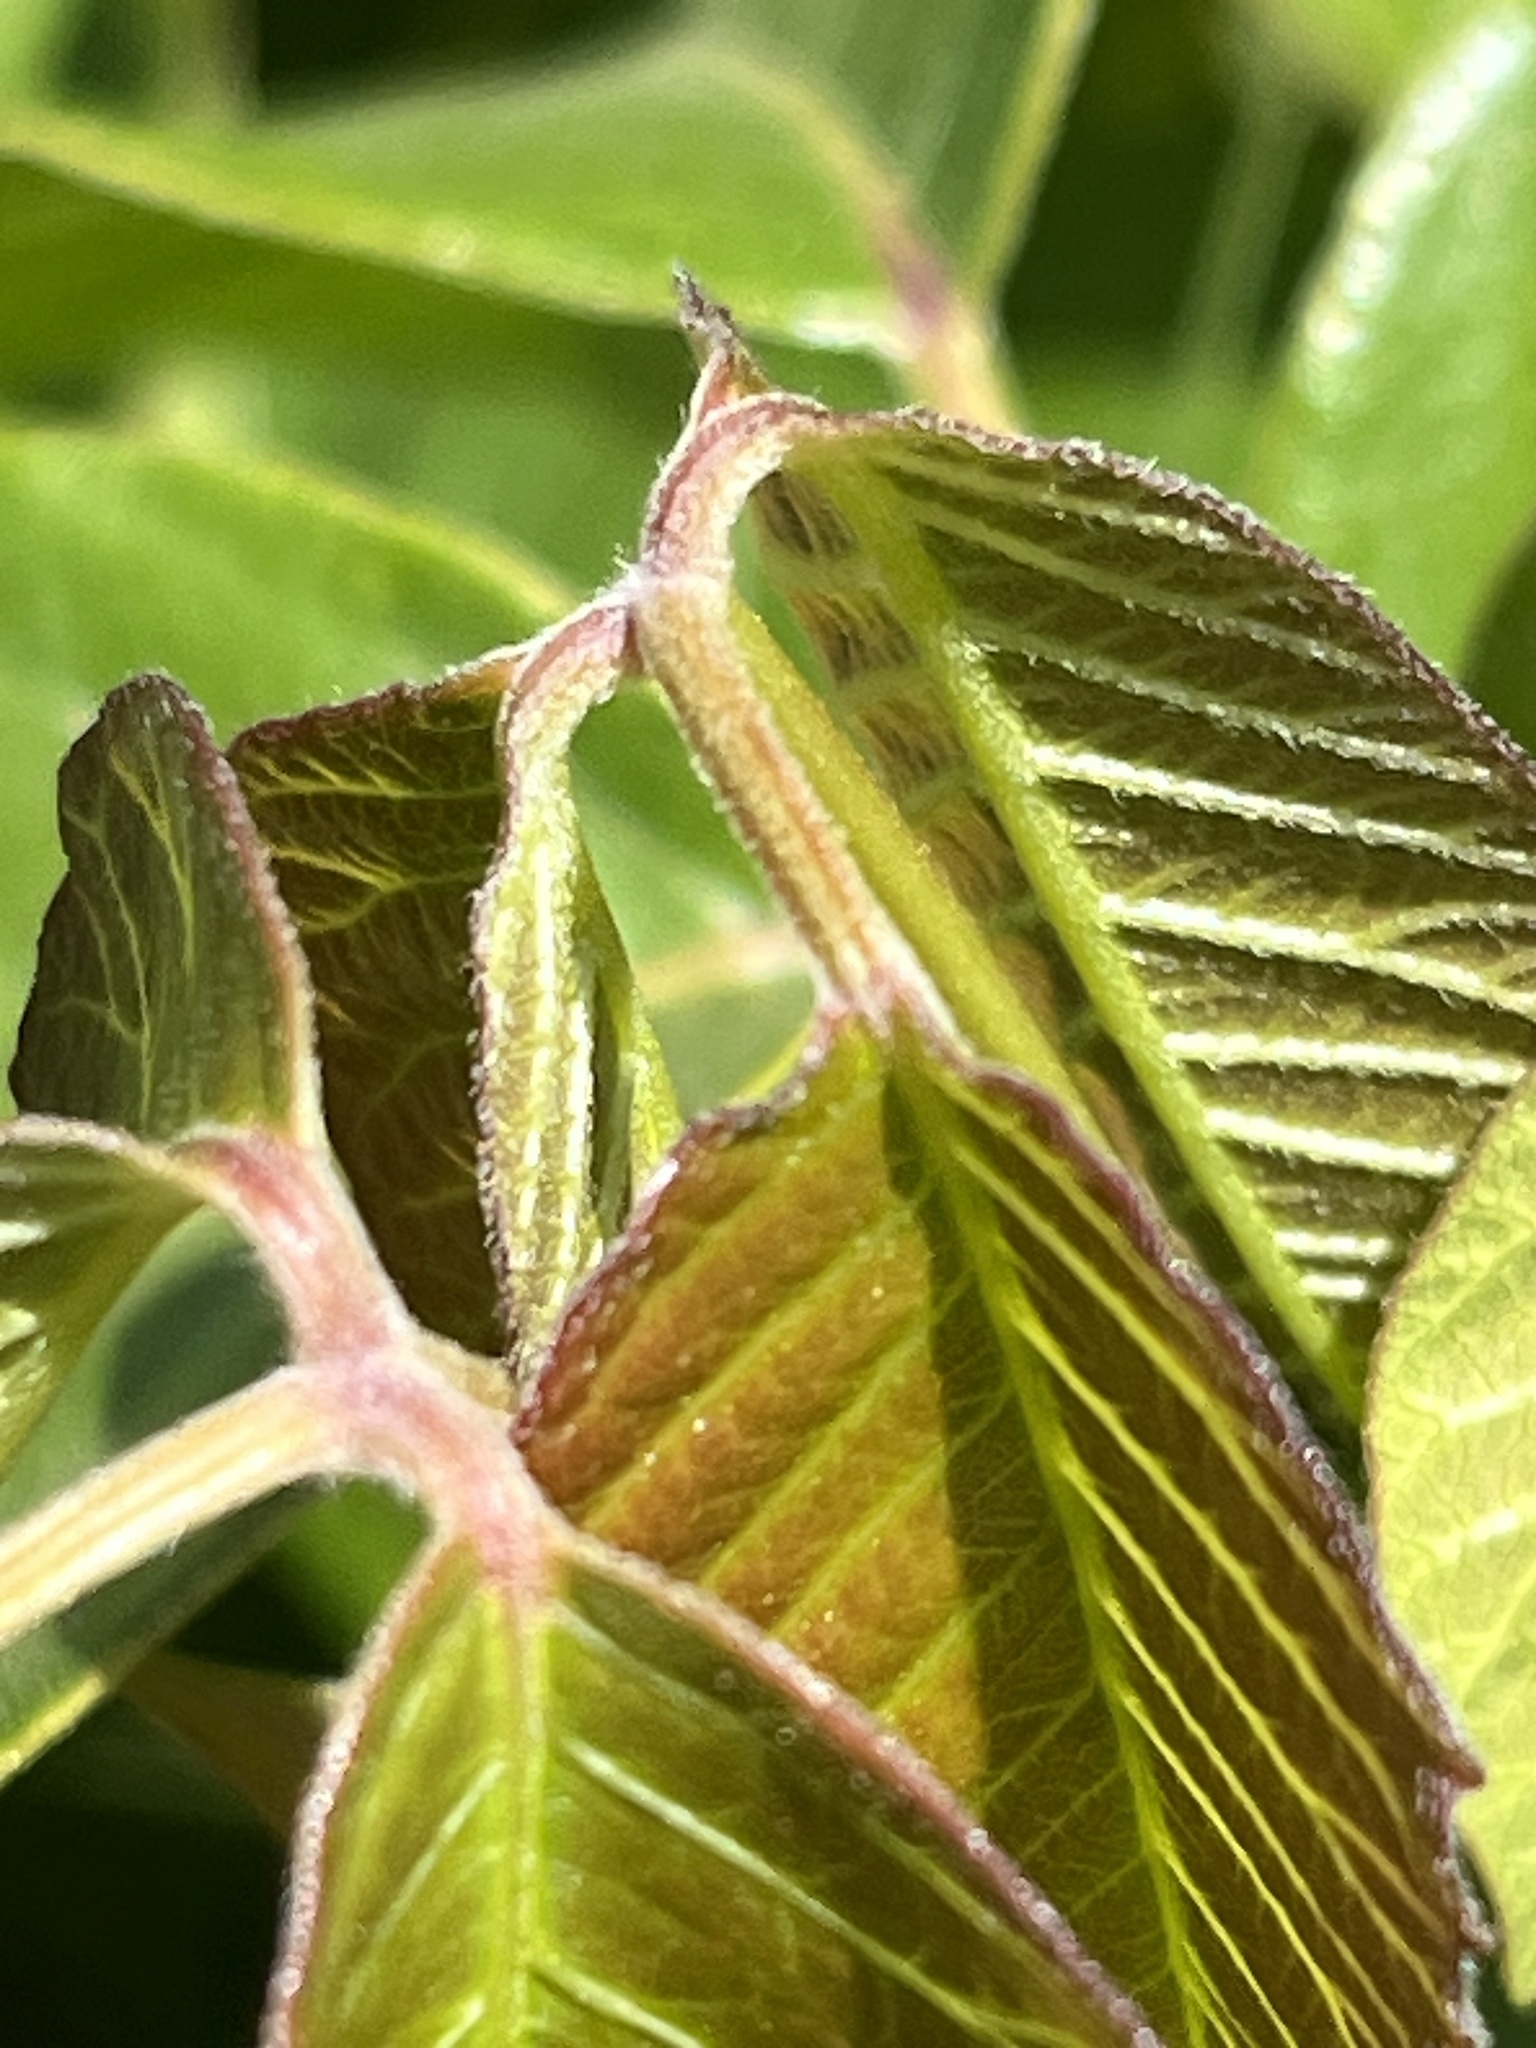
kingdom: Plantae
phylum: Tracheophyta
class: Magnoliopsida
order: Sapindales
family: Anacardiaceae
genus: Toxicodendron
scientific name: Toxicodendron rydbergii
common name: Rydberg's poison-ivy
